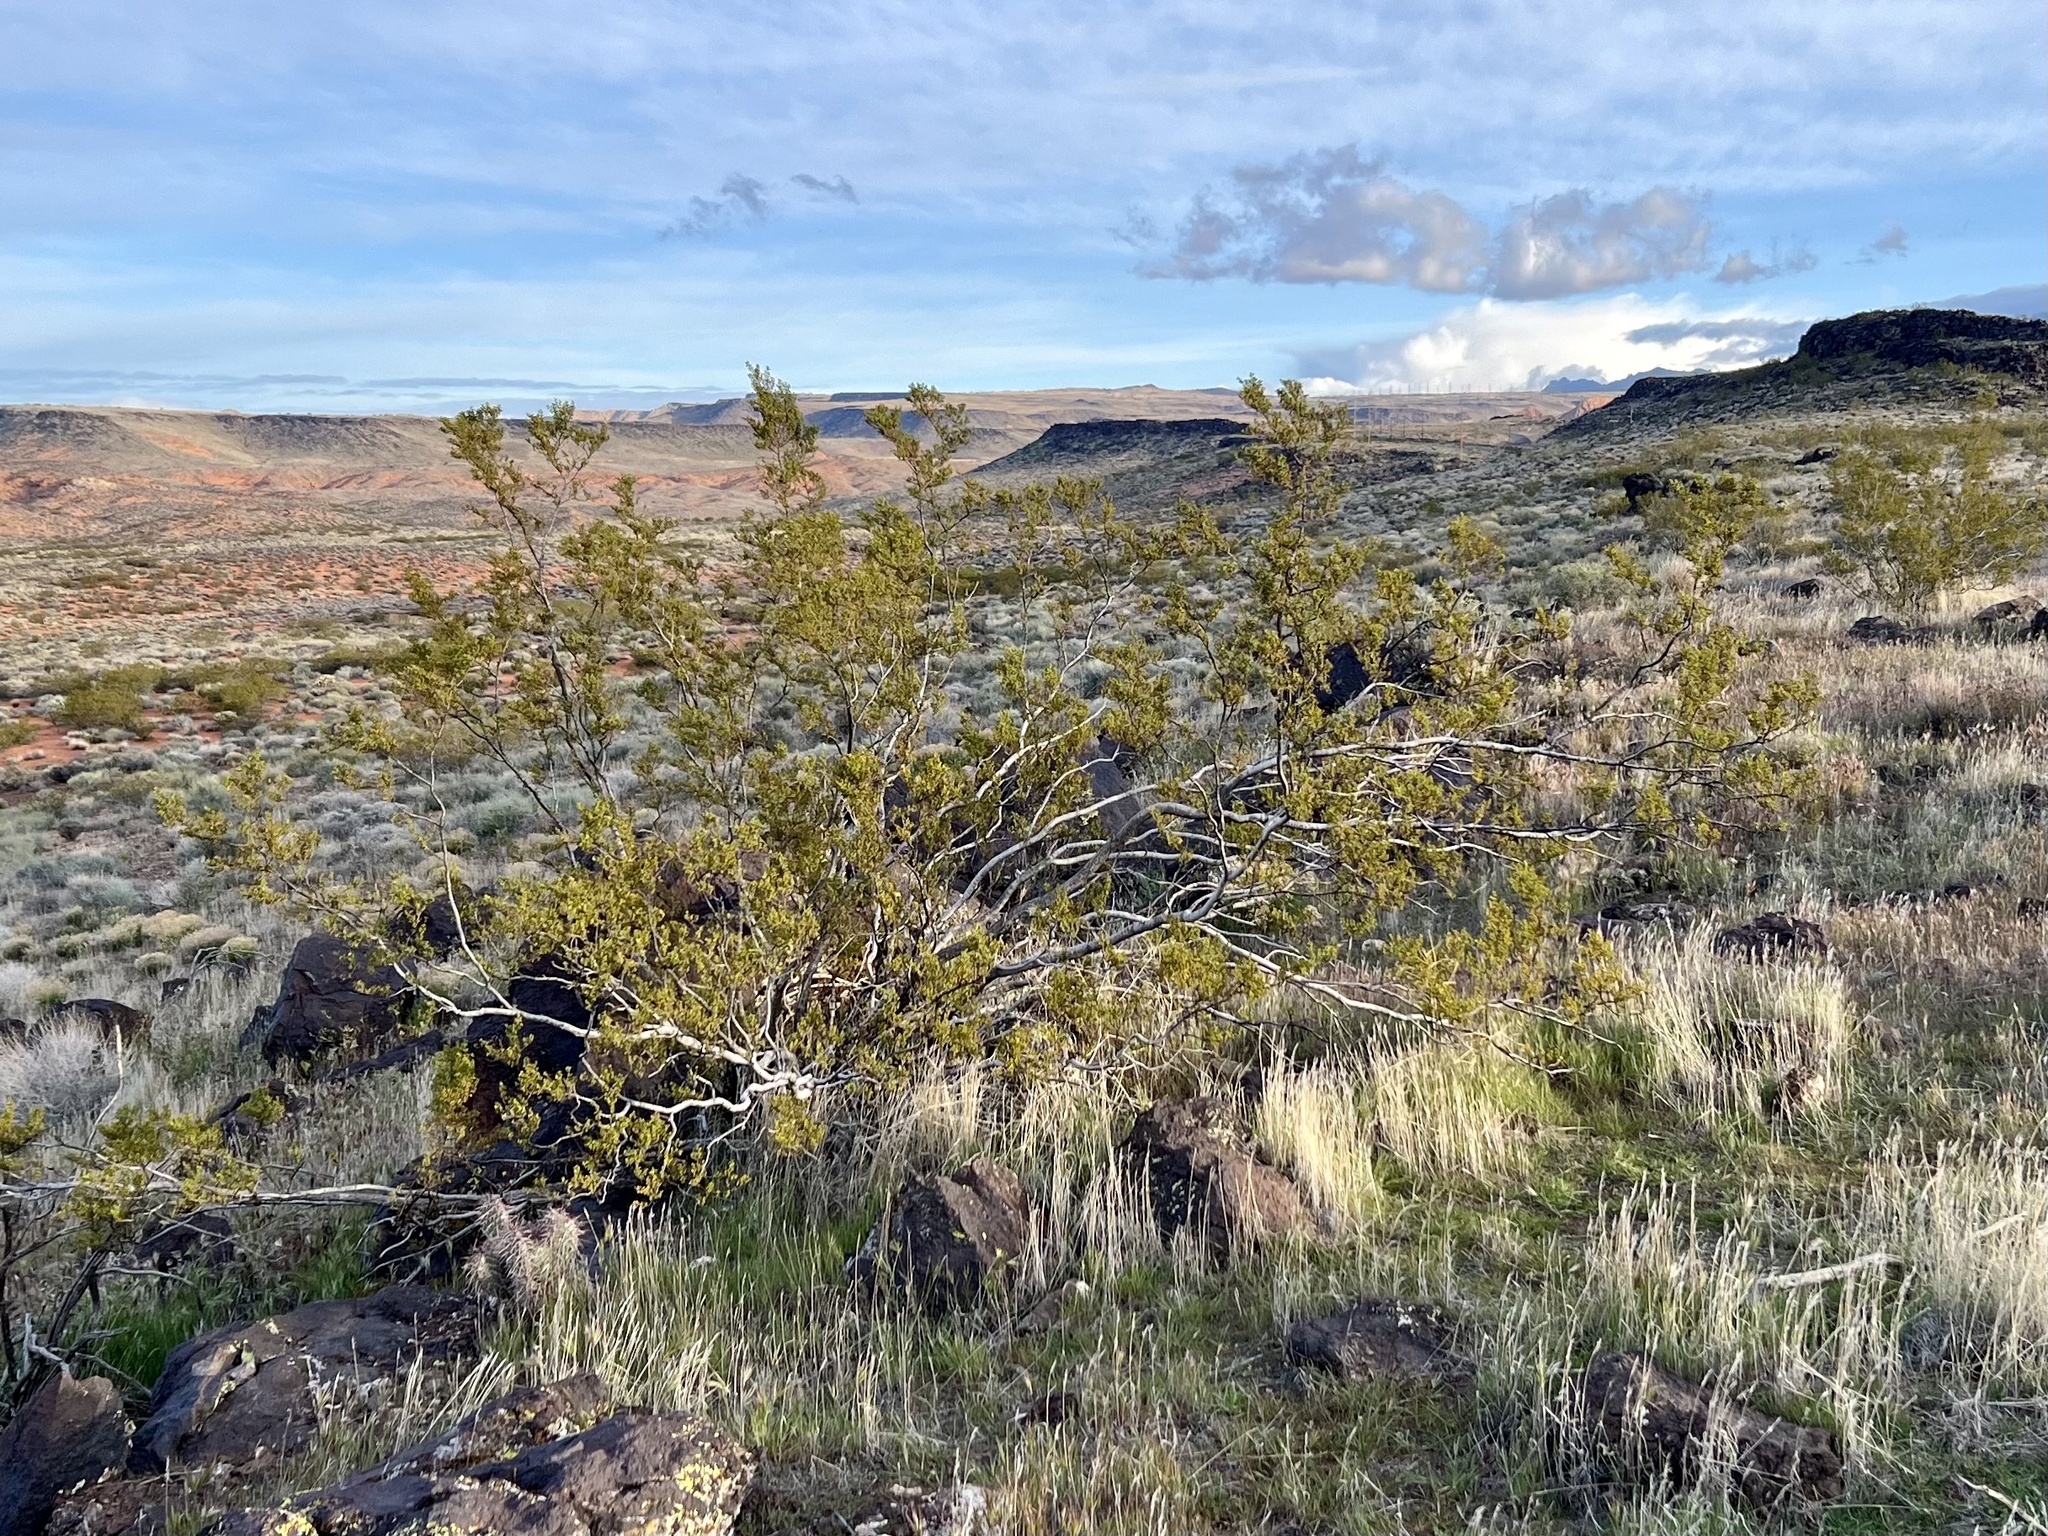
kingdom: Plantae
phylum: Tracheophyta
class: Magnoliopsida
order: Zygophyllales
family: Zygophyllaceae
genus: Larrea
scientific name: Larrea tridentata
